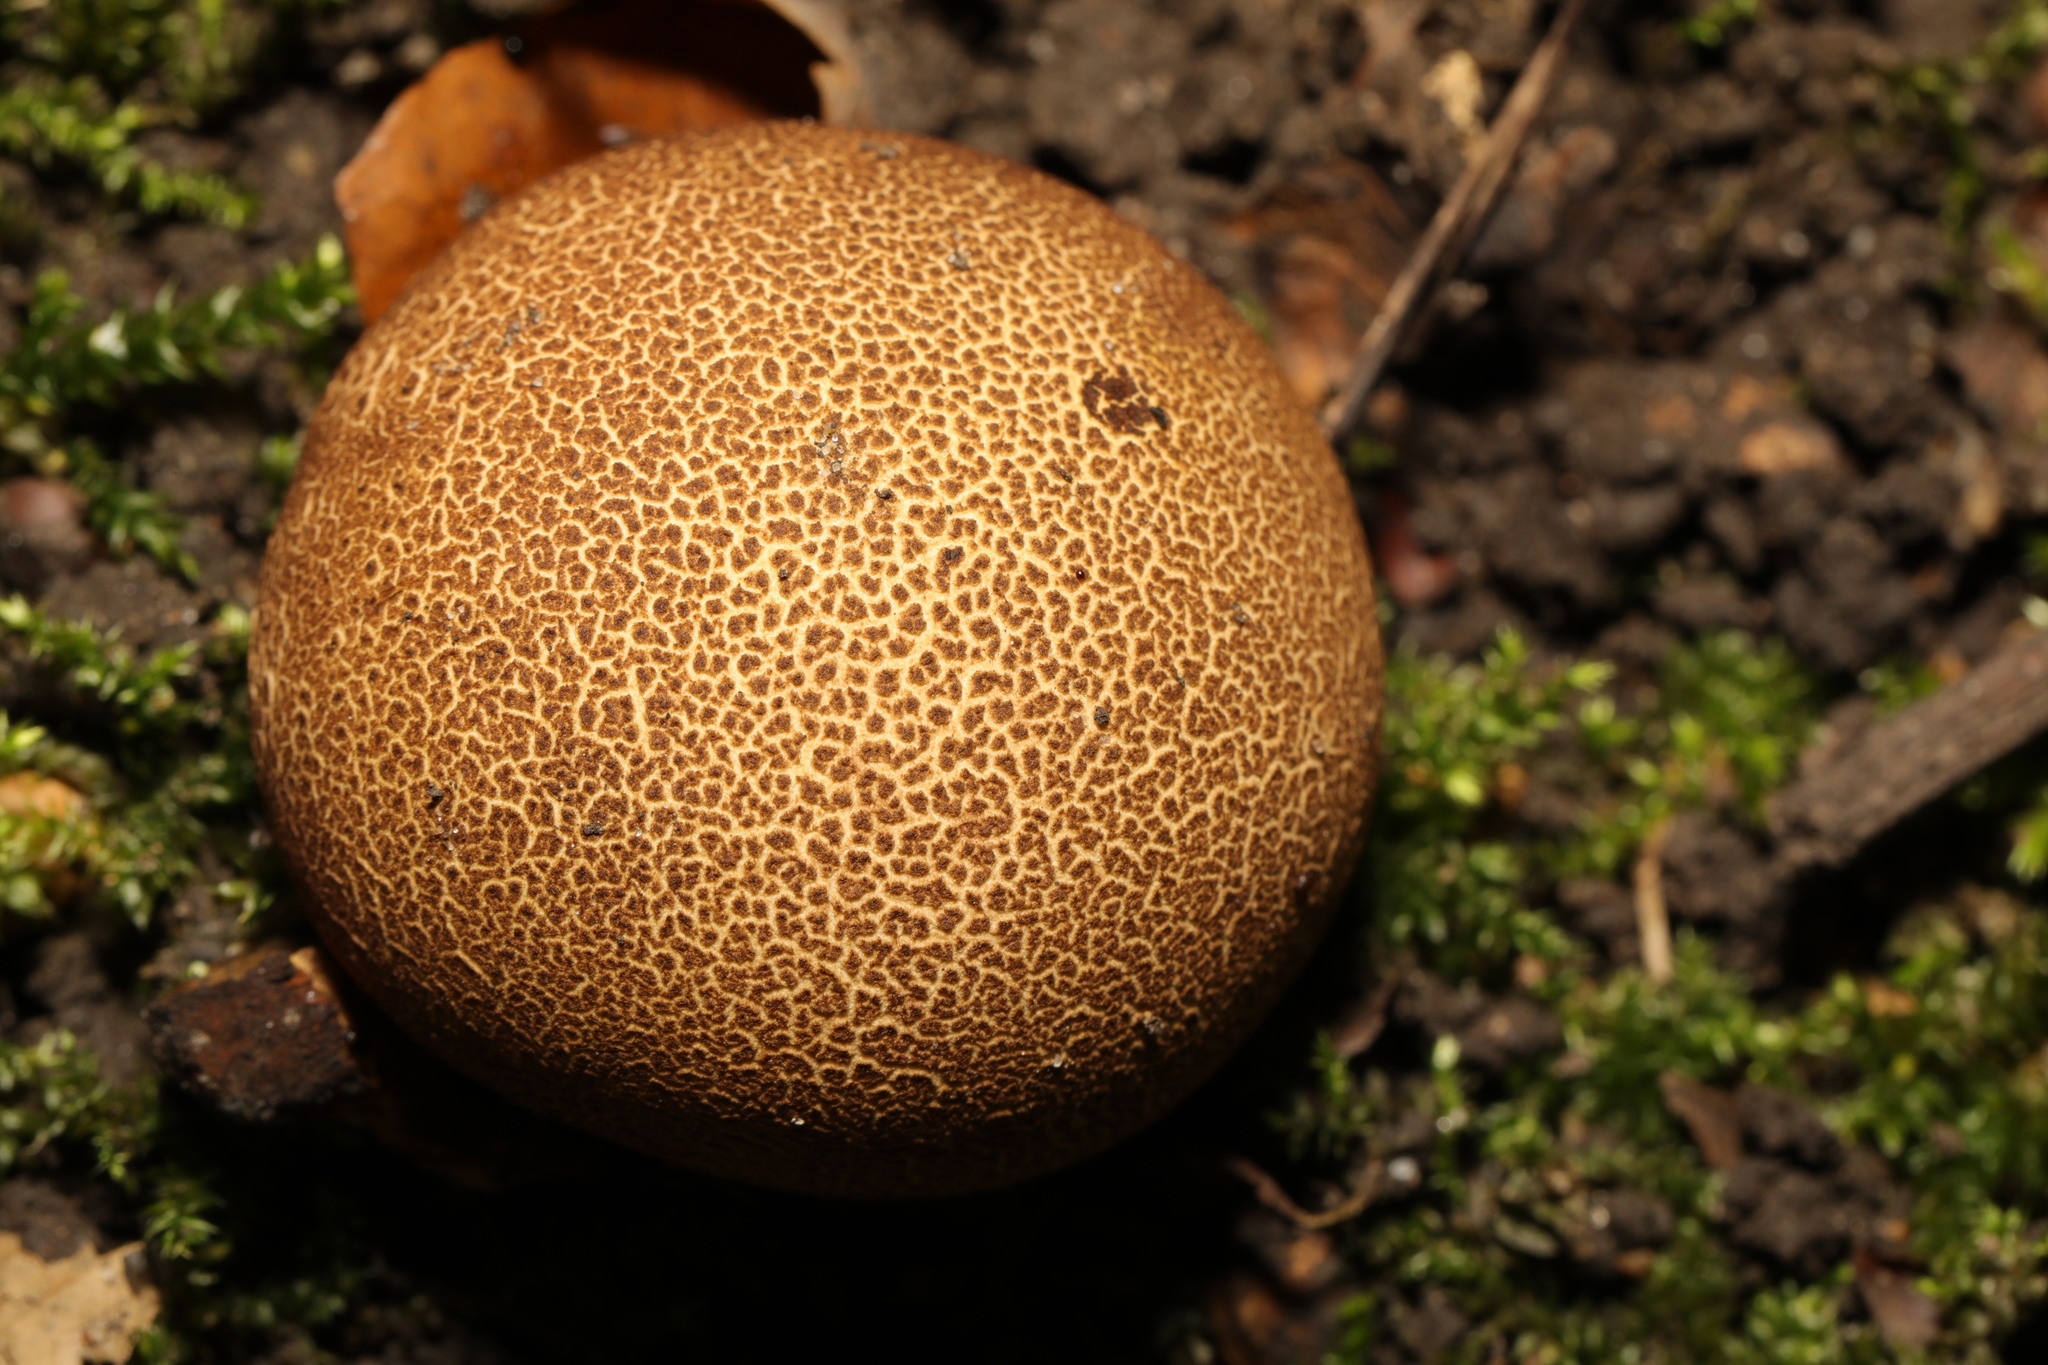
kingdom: Fungi
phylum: Basidiomycota
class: Agaricomycetes
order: Boletales
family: Sclerodermataceae
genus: Scleroderma
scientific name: Scleroderma citrinum
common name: Common earthball
